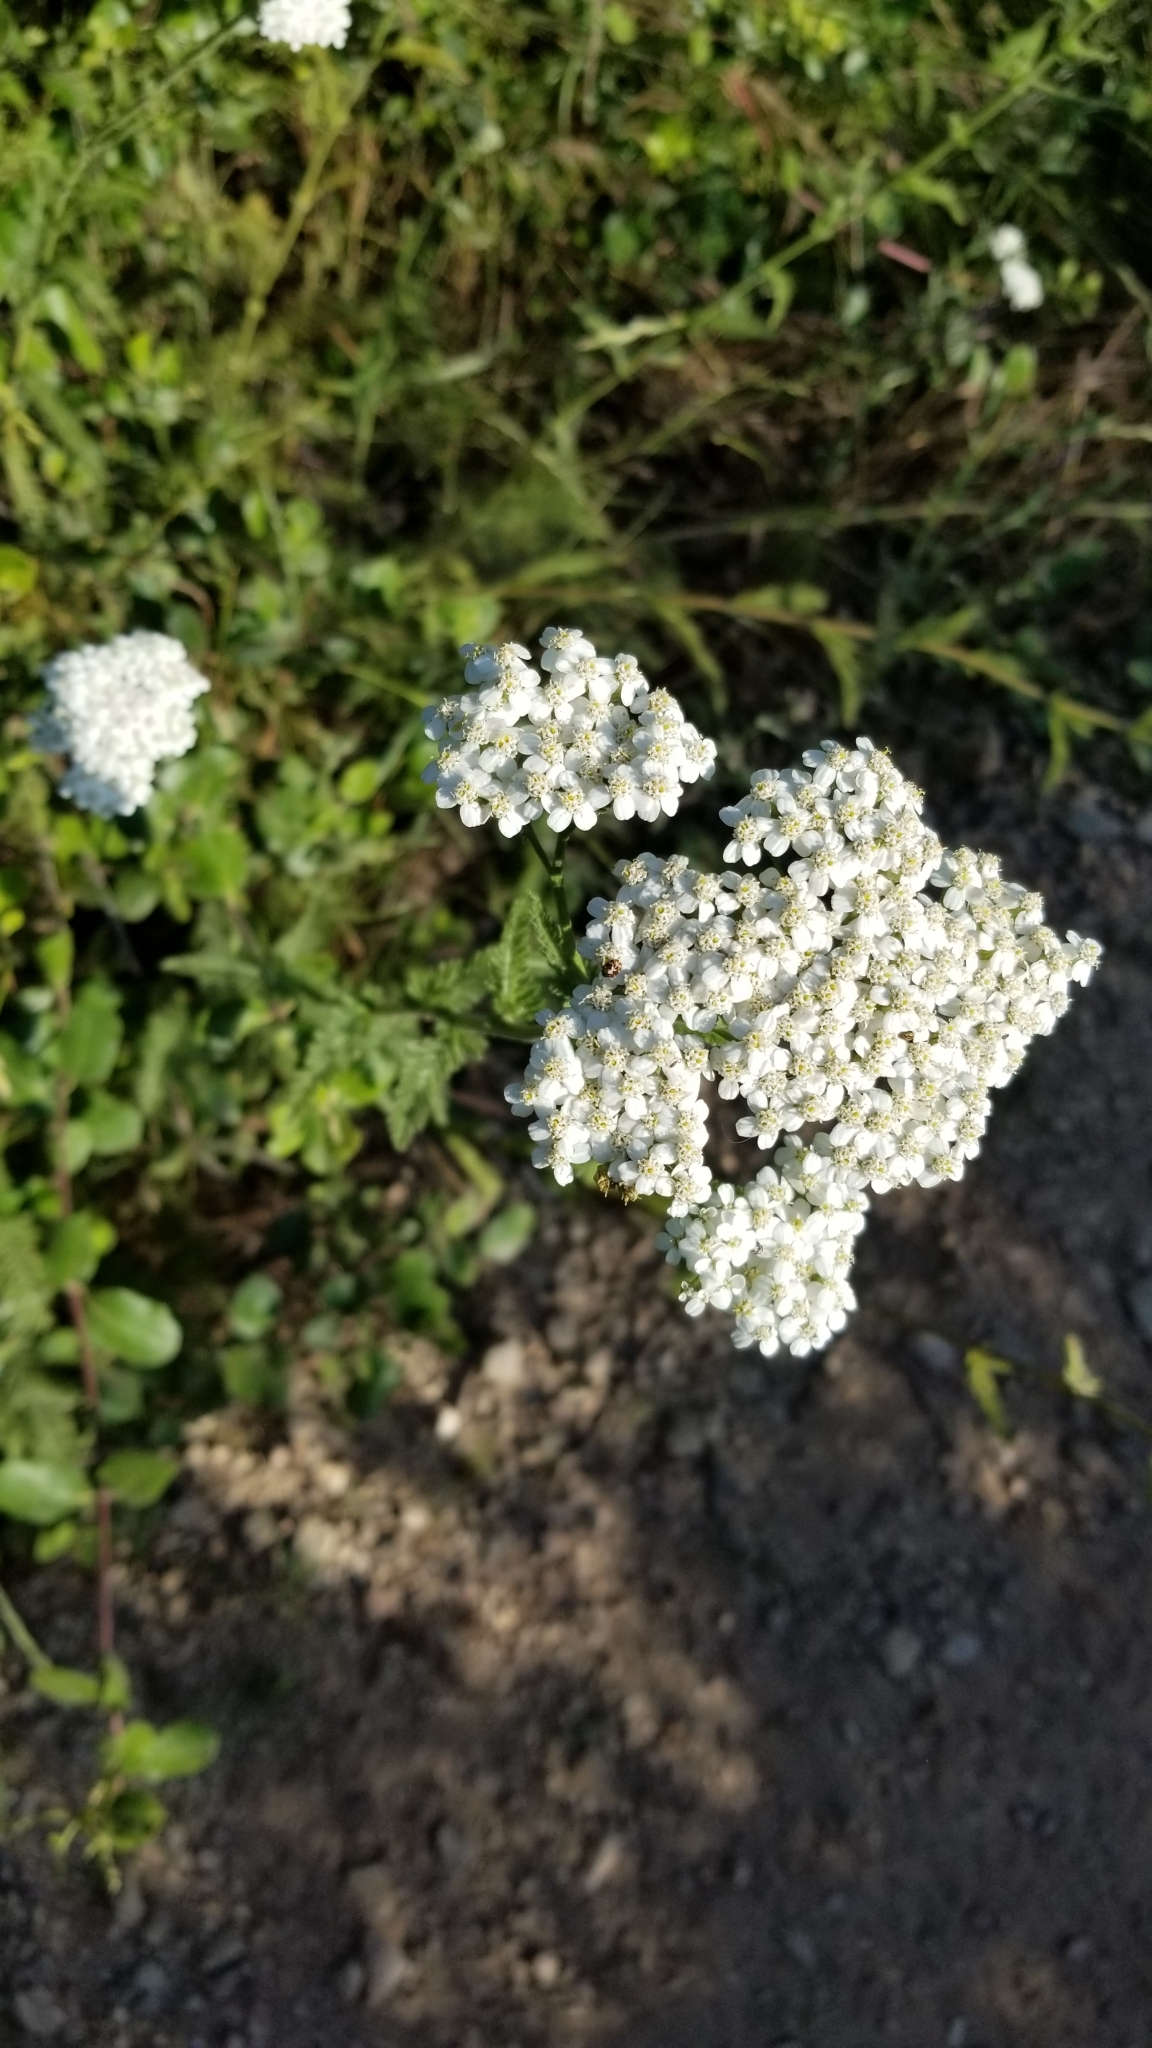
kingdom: Plantae
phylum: Tracheophyta
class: Magnoliopsida
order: Asterales
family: Asteraceae
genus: Achillea
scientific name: Achillea millefolium
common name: Yarrow
